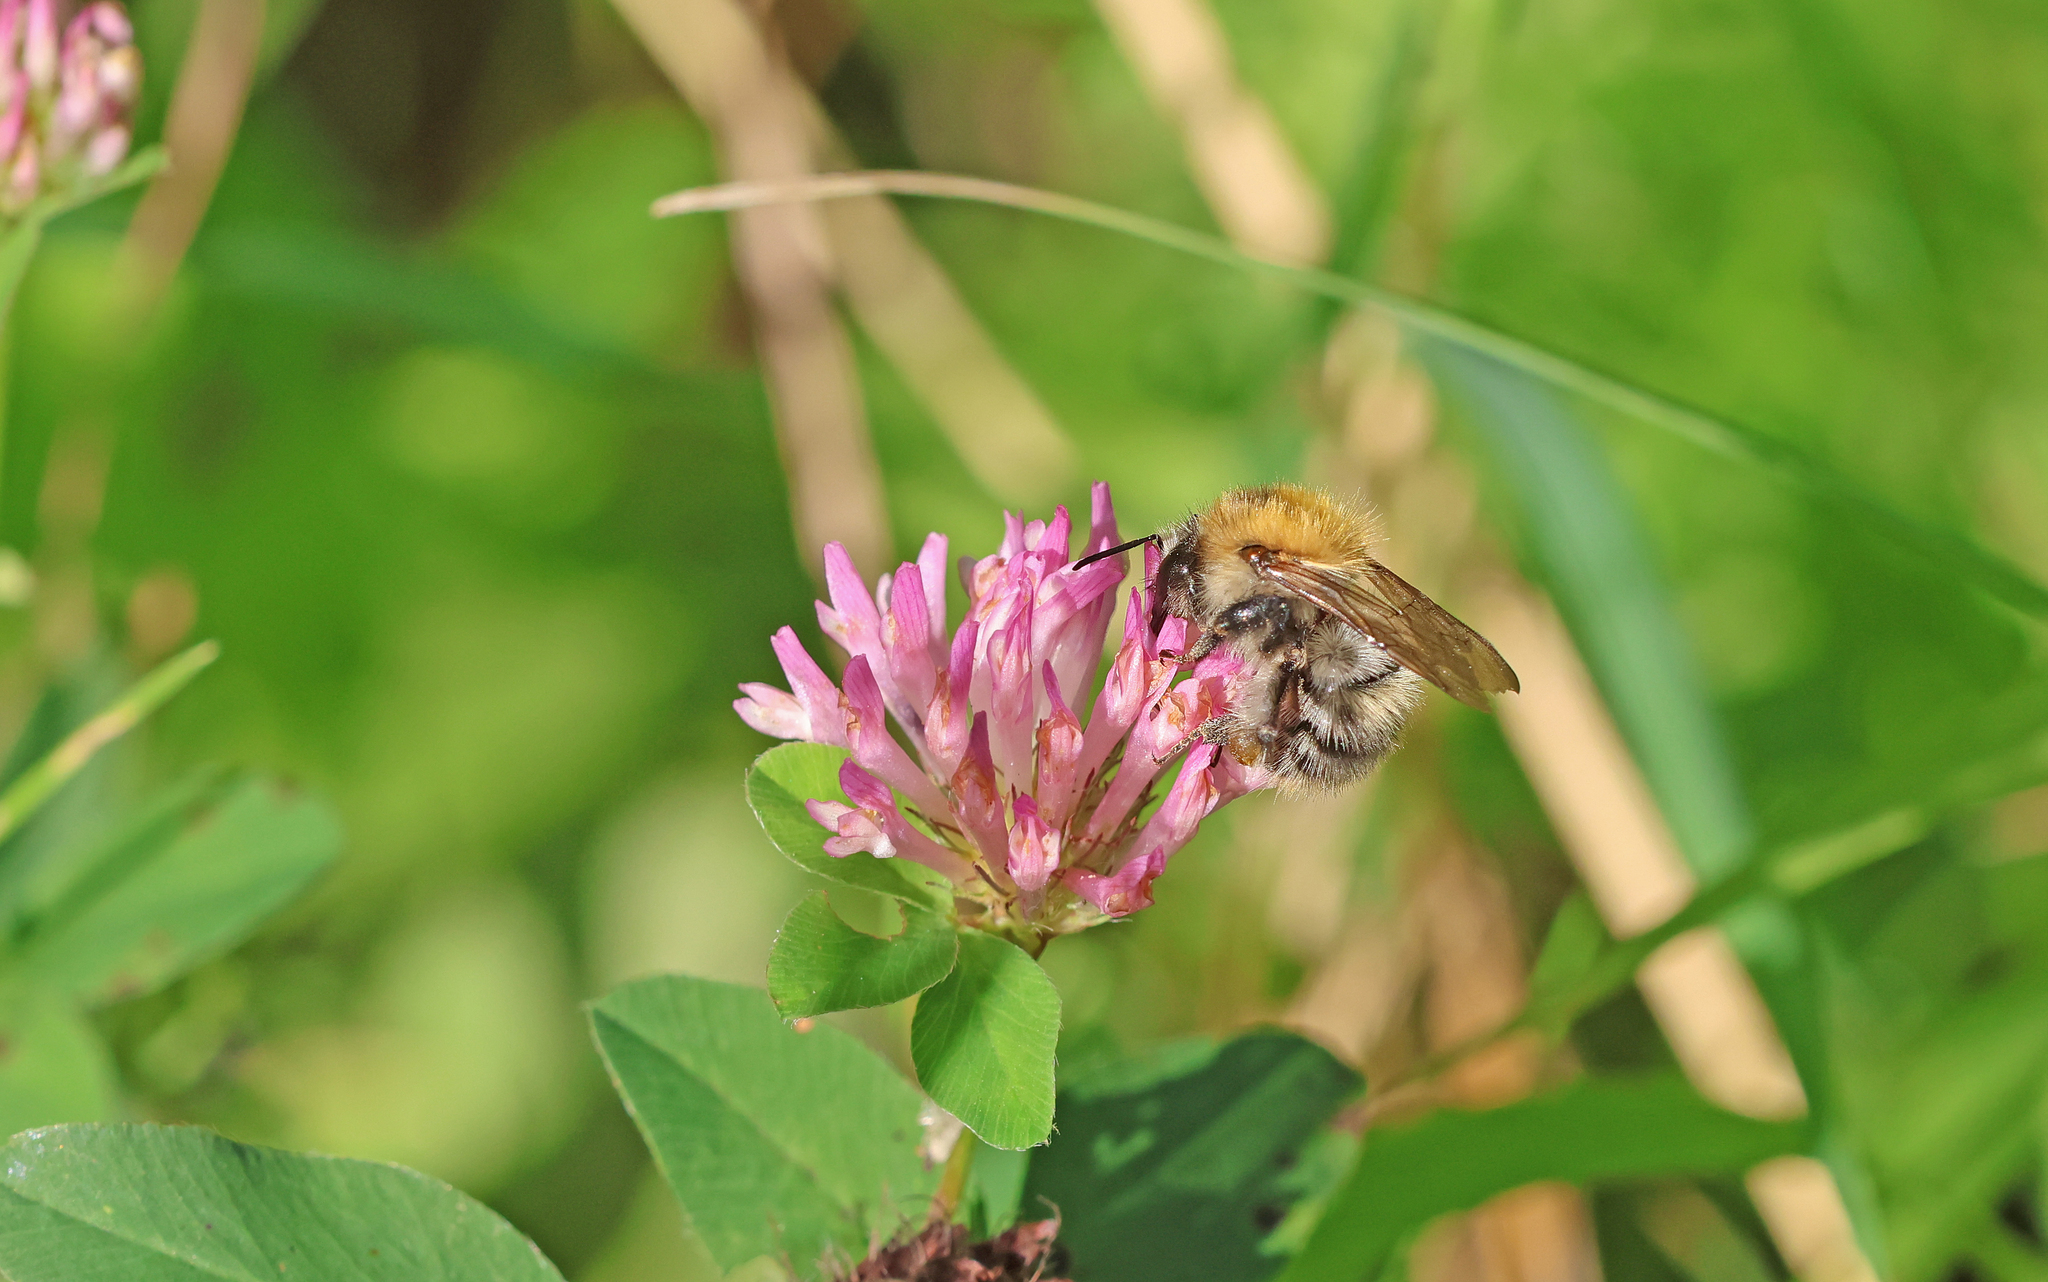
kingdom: Animalia
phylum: Arthropoda
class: Insecta
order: Hymenoptera
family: Apidae
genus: Bombus
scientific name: Bombus pascuorum
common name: Common carder bee
